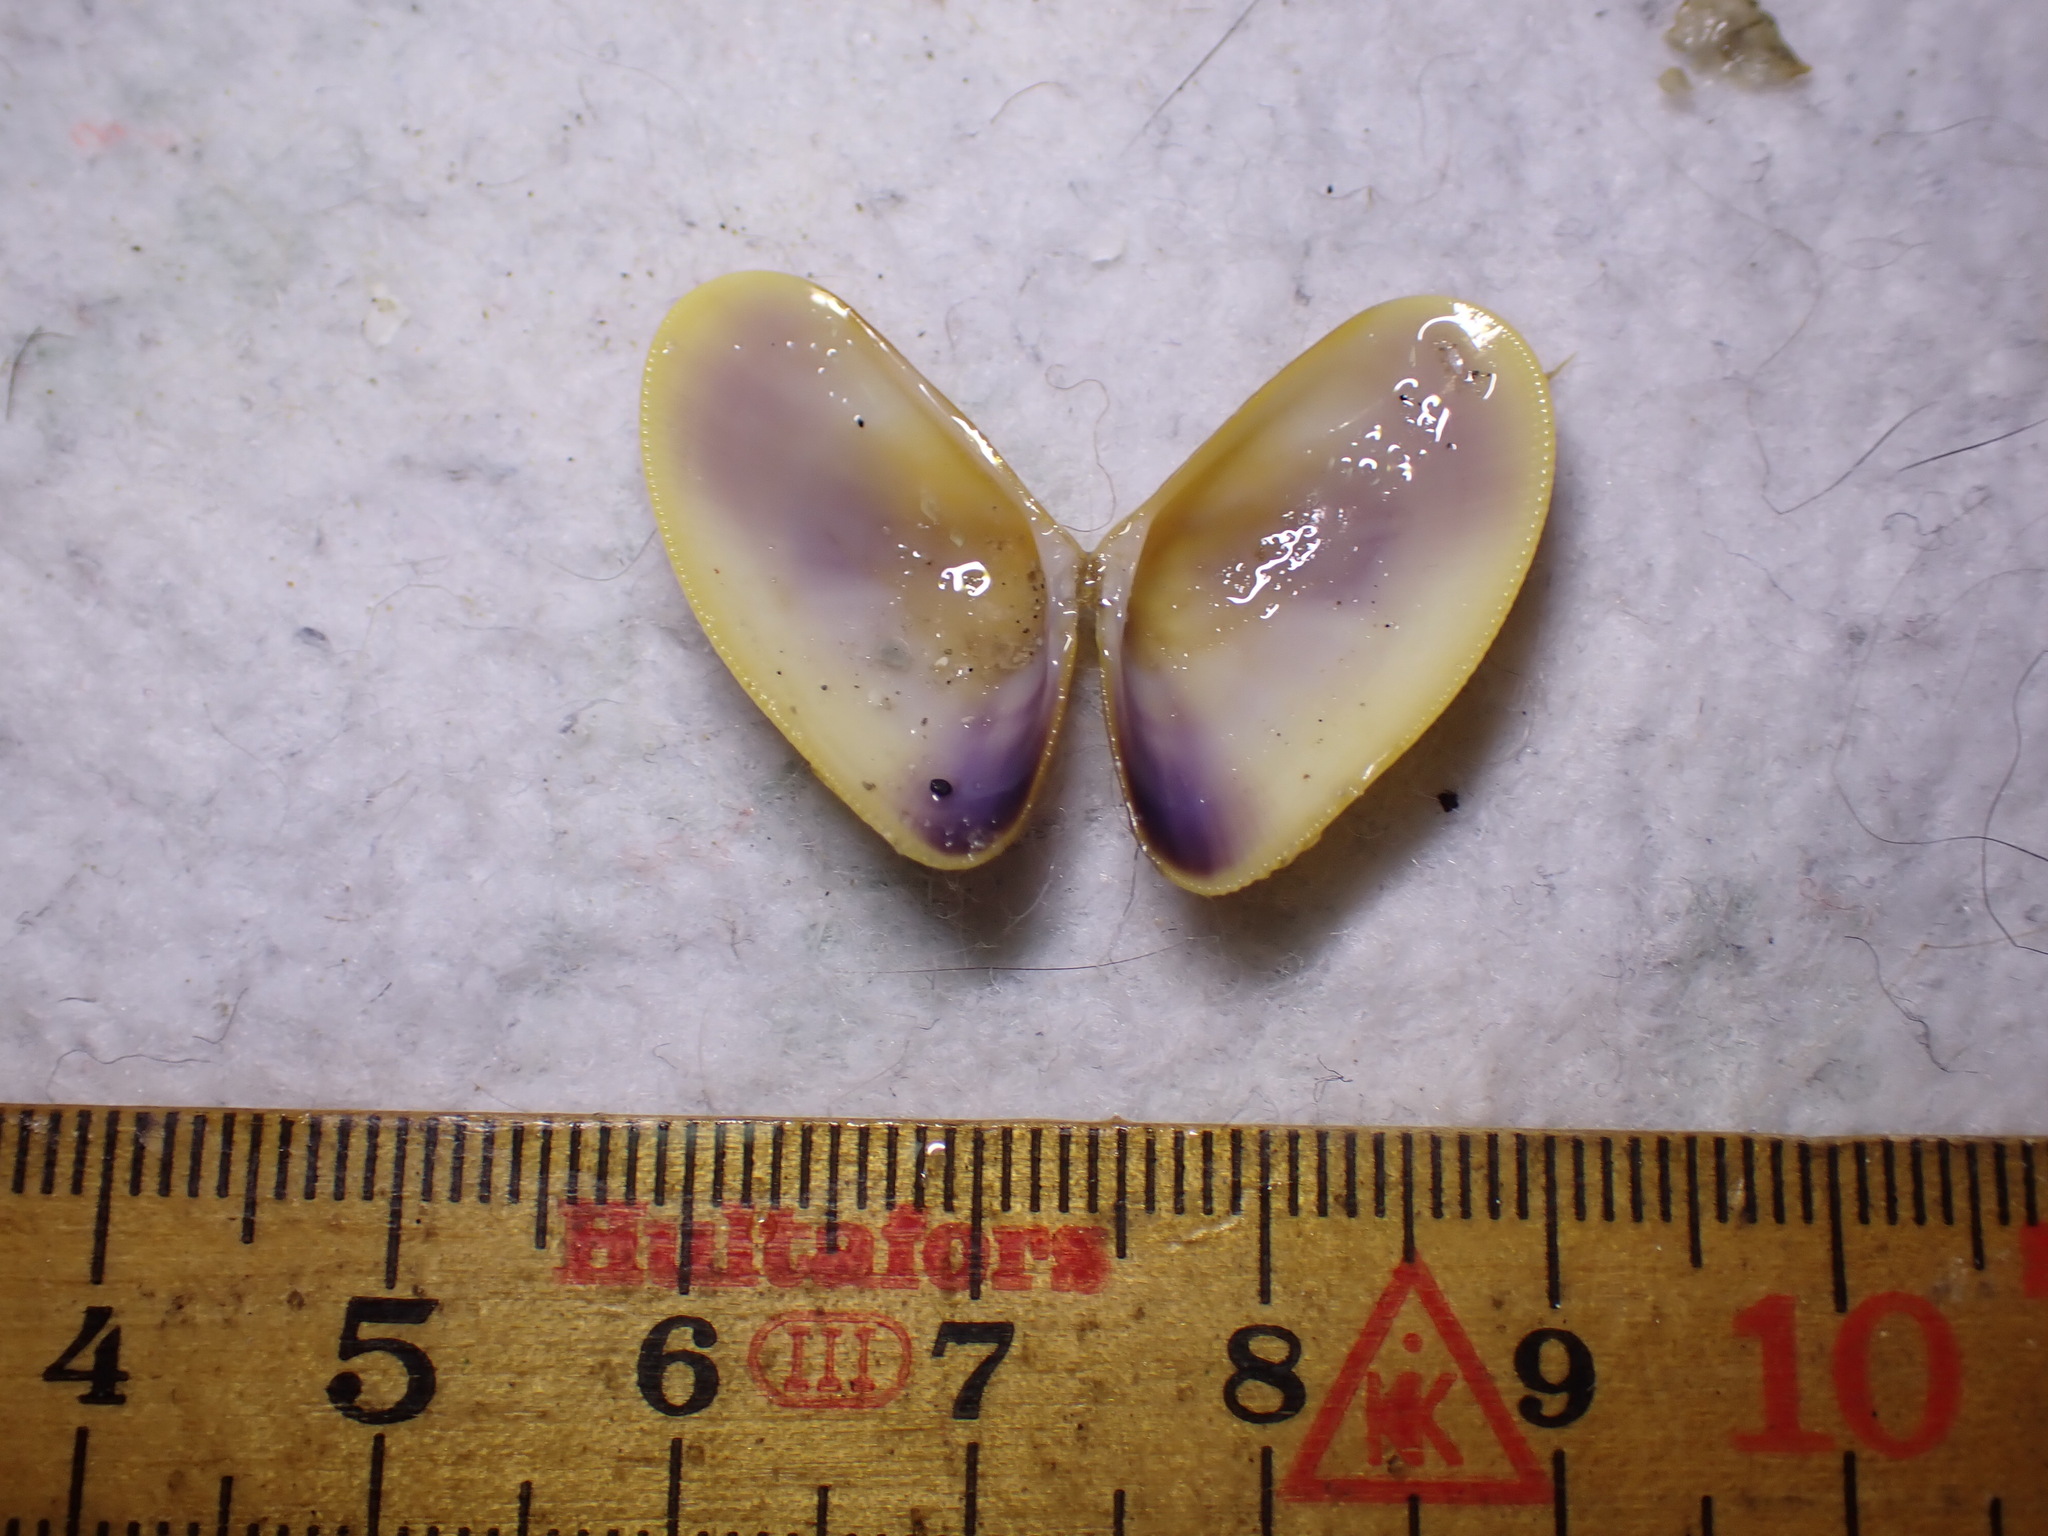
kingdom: Animalia
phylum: Mollusca
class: Bivalvia
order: Cardiida
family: Donacidae
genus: Donax
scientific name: Donax vittatus
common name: Banded wedge-shell
